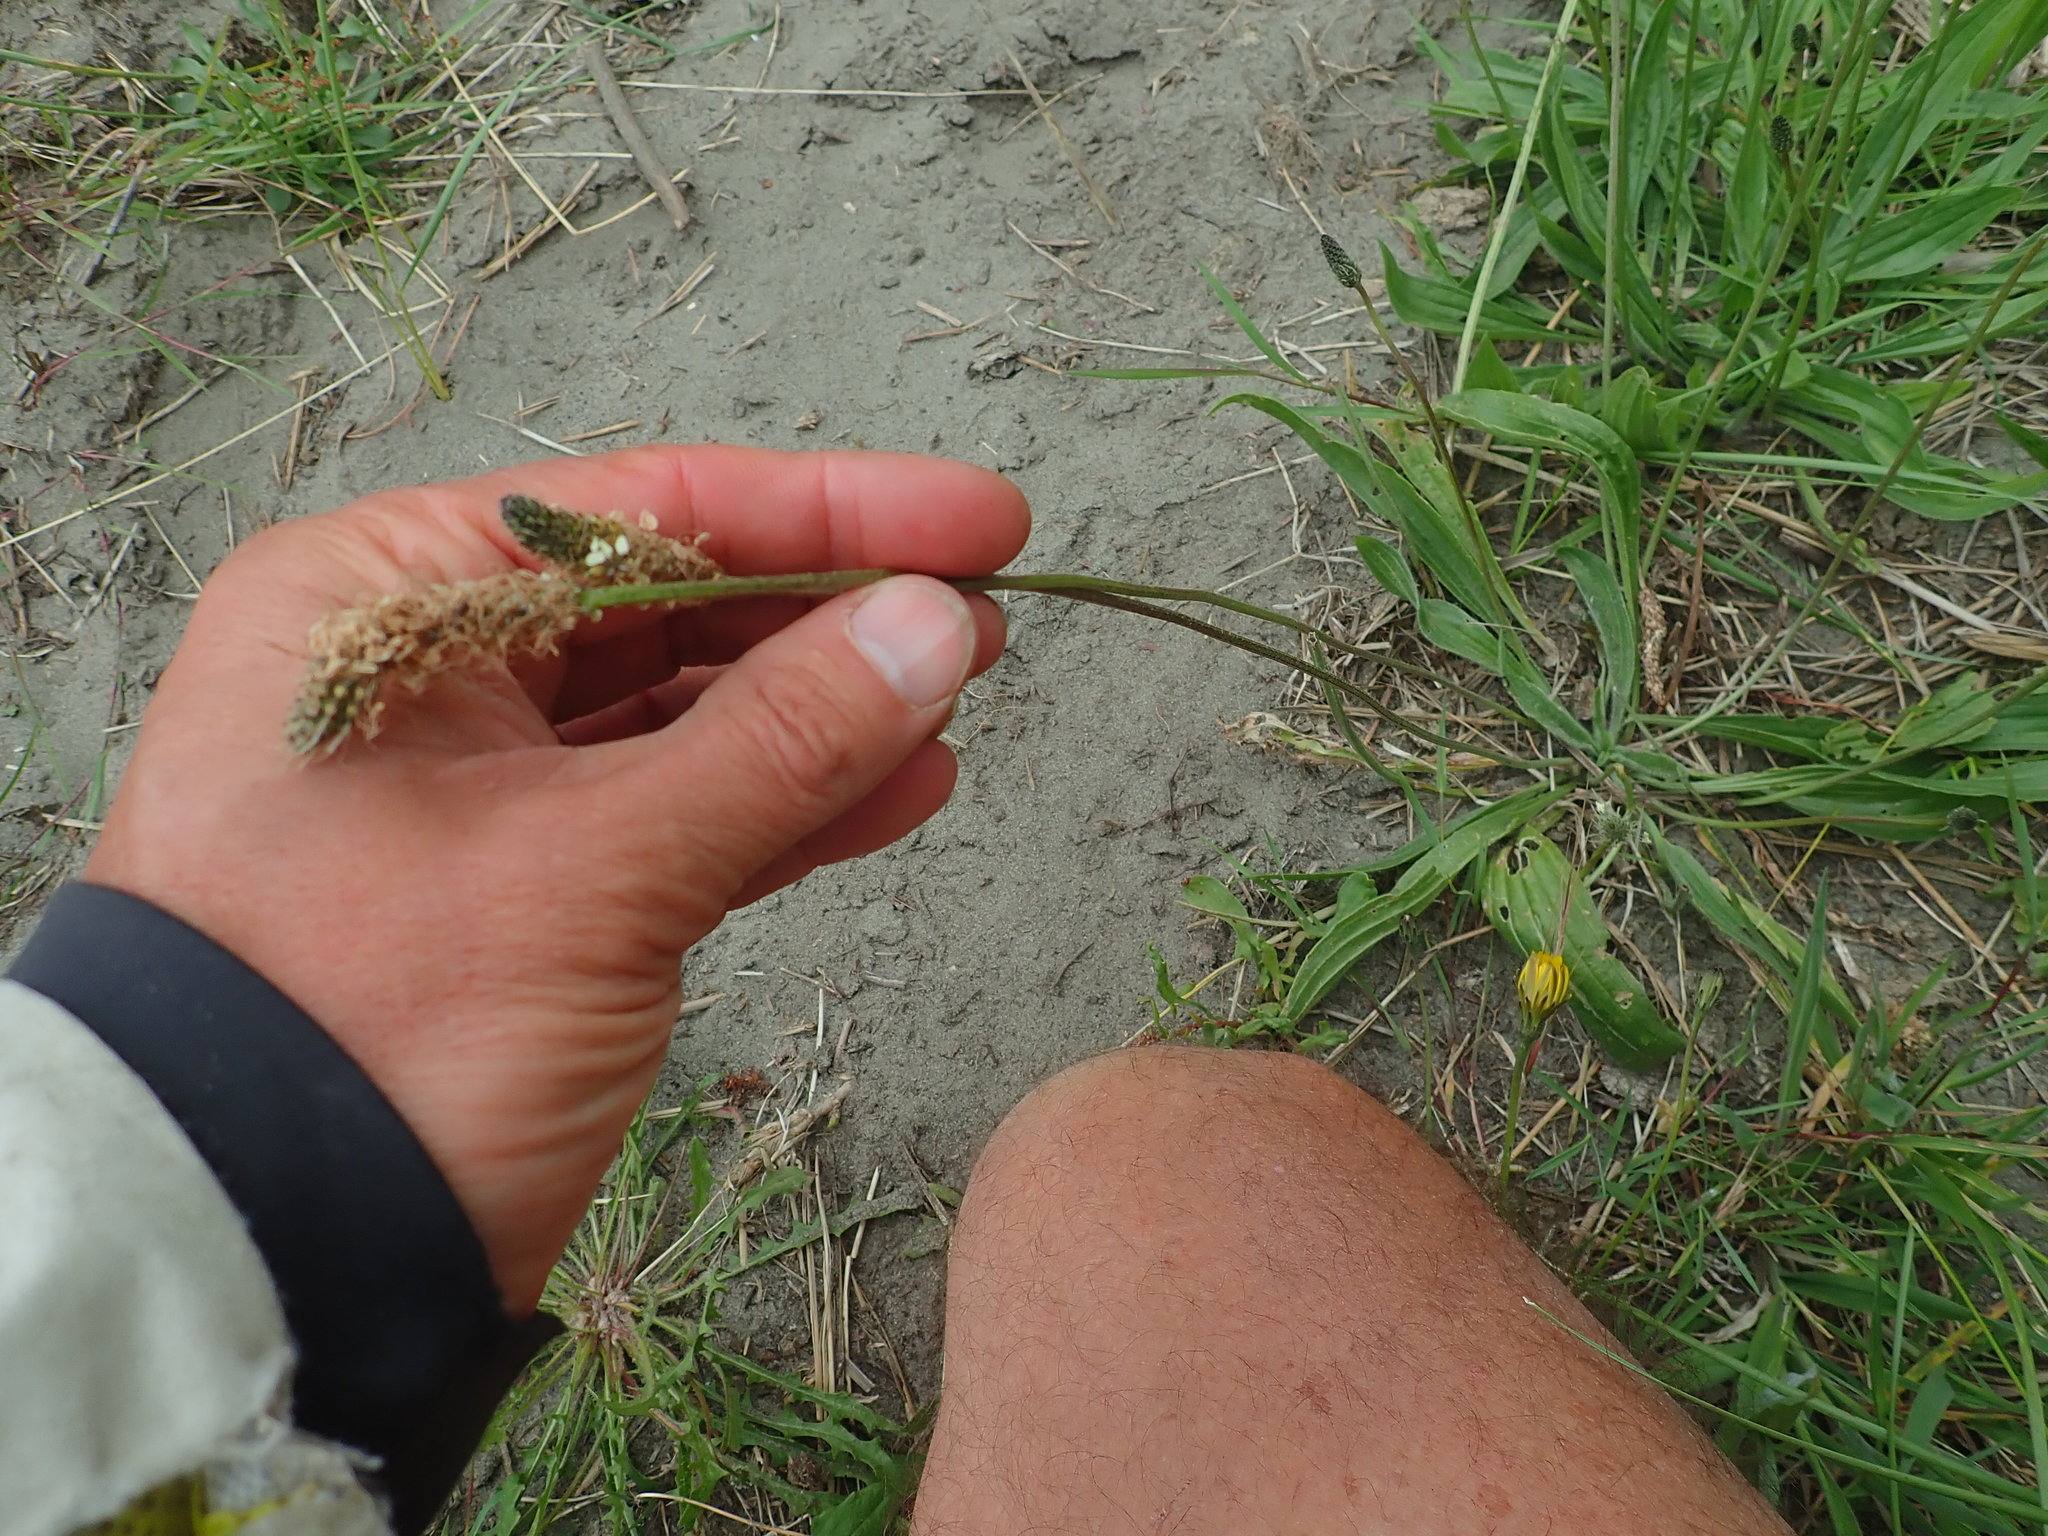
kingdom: Plantae
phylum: Tracheophyta
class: Magnoliopsida
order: Lamiales
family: Plantaginaceae
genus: Plantago
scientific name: Plantago lanceolata
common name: Ribwort plantain
